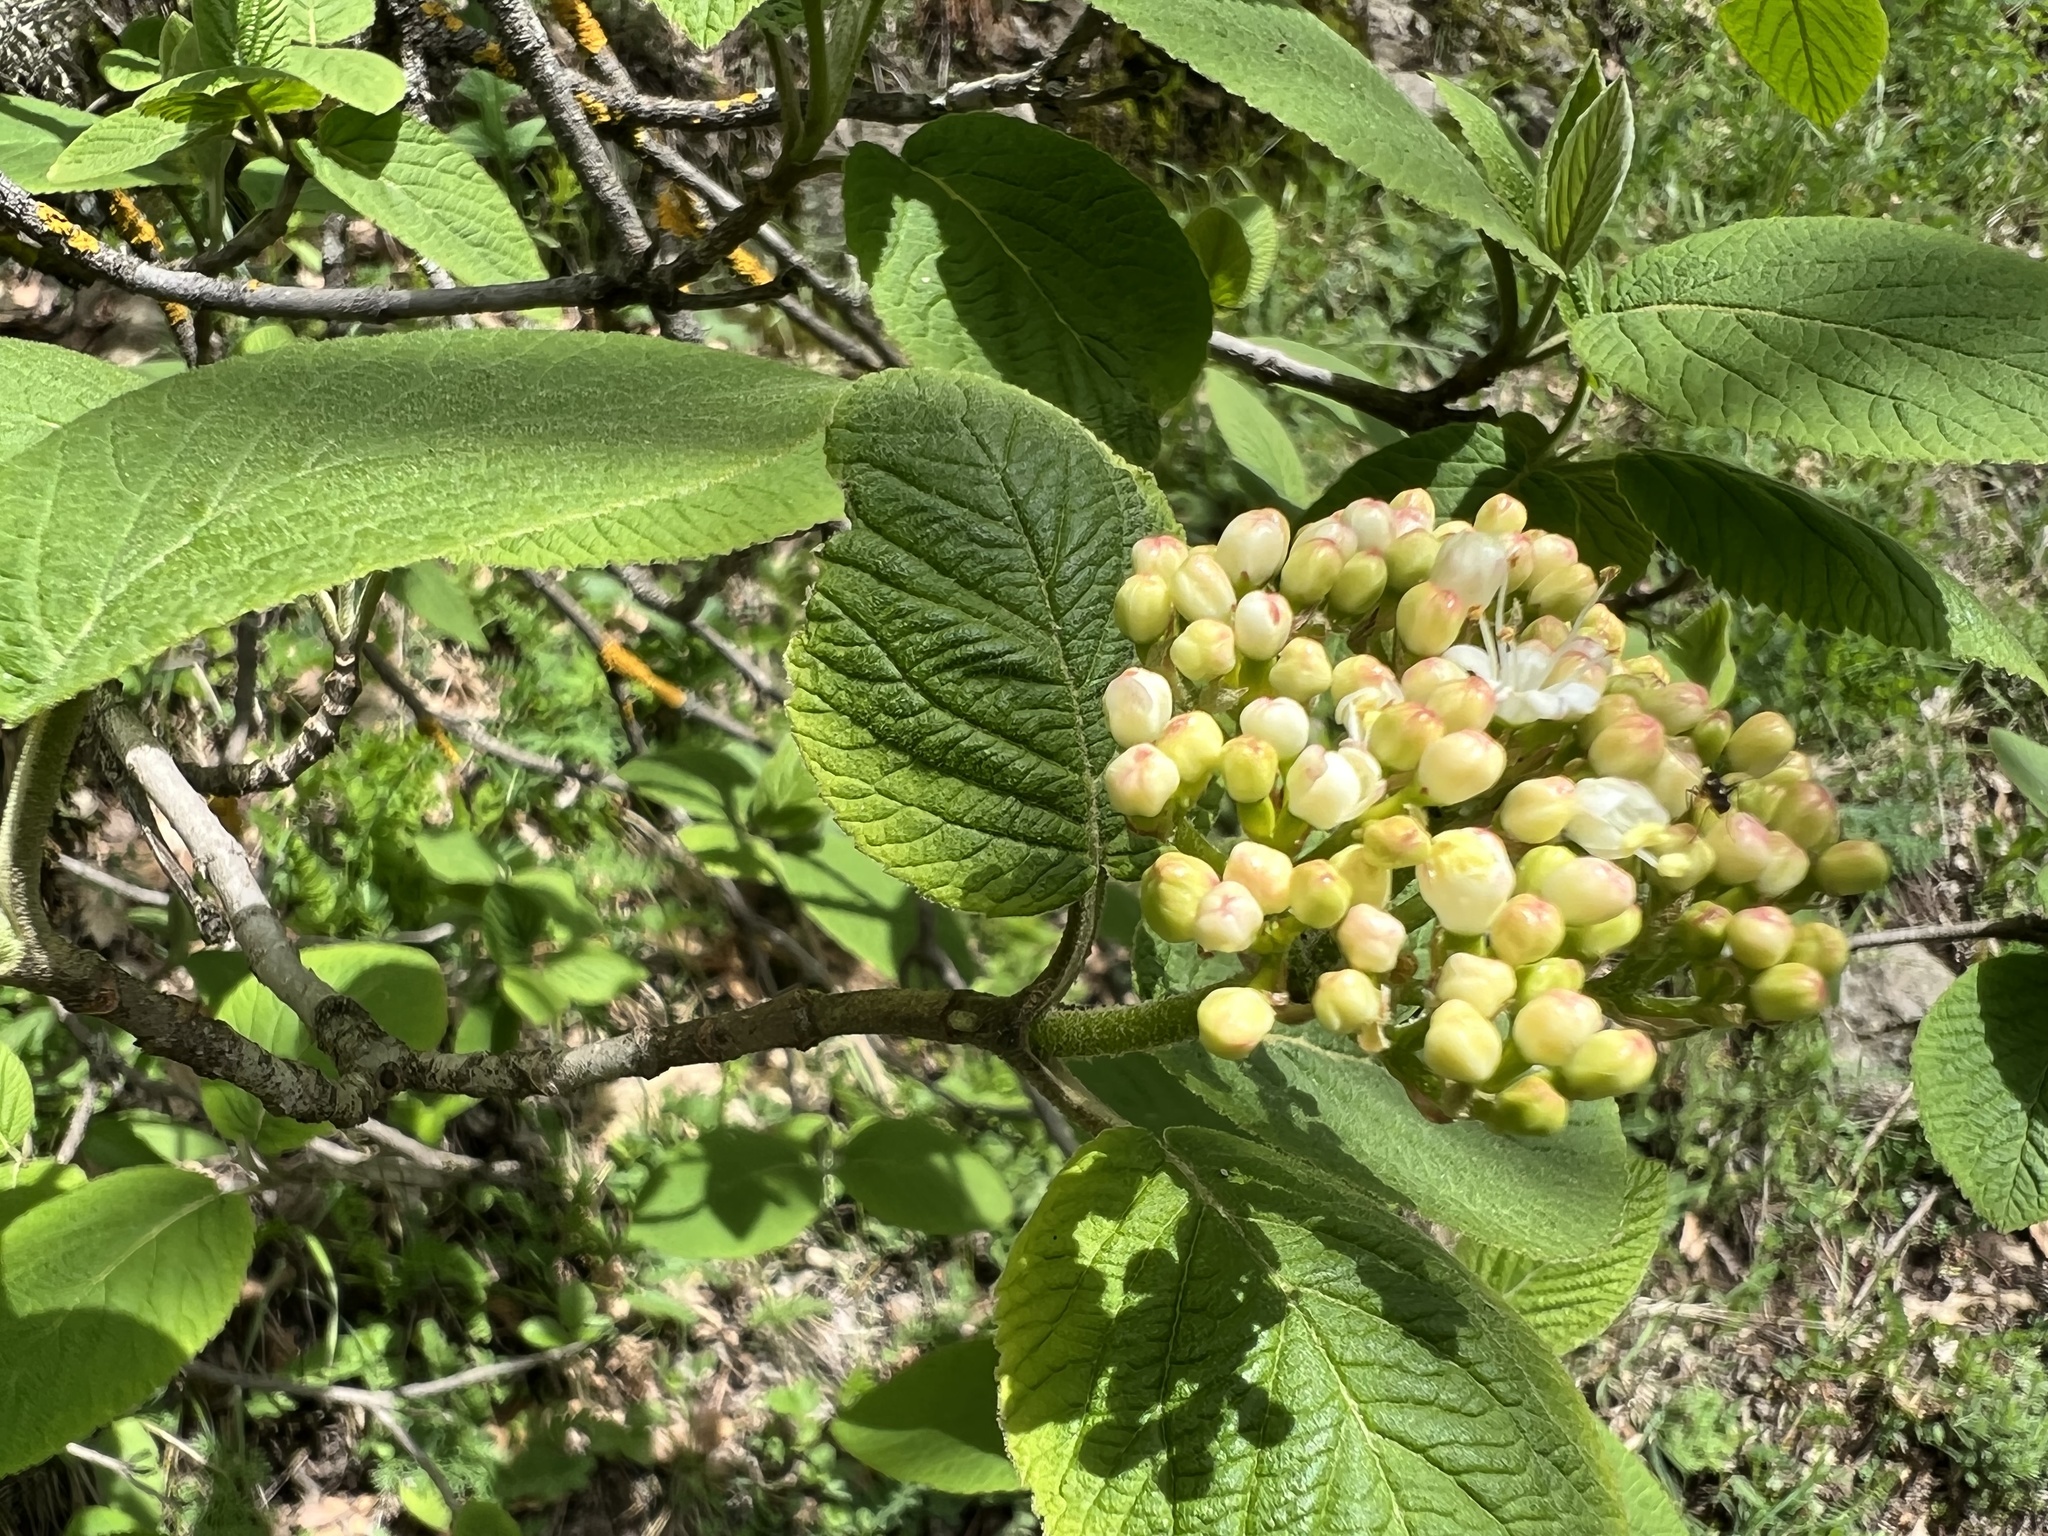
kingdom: Plantae
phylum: Tracheophyta
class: Magnoliopsida
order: Dipsacales
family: Viburnaceae
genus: Viburnum
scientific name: Viburnum lantana
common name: Wayfaring tree
